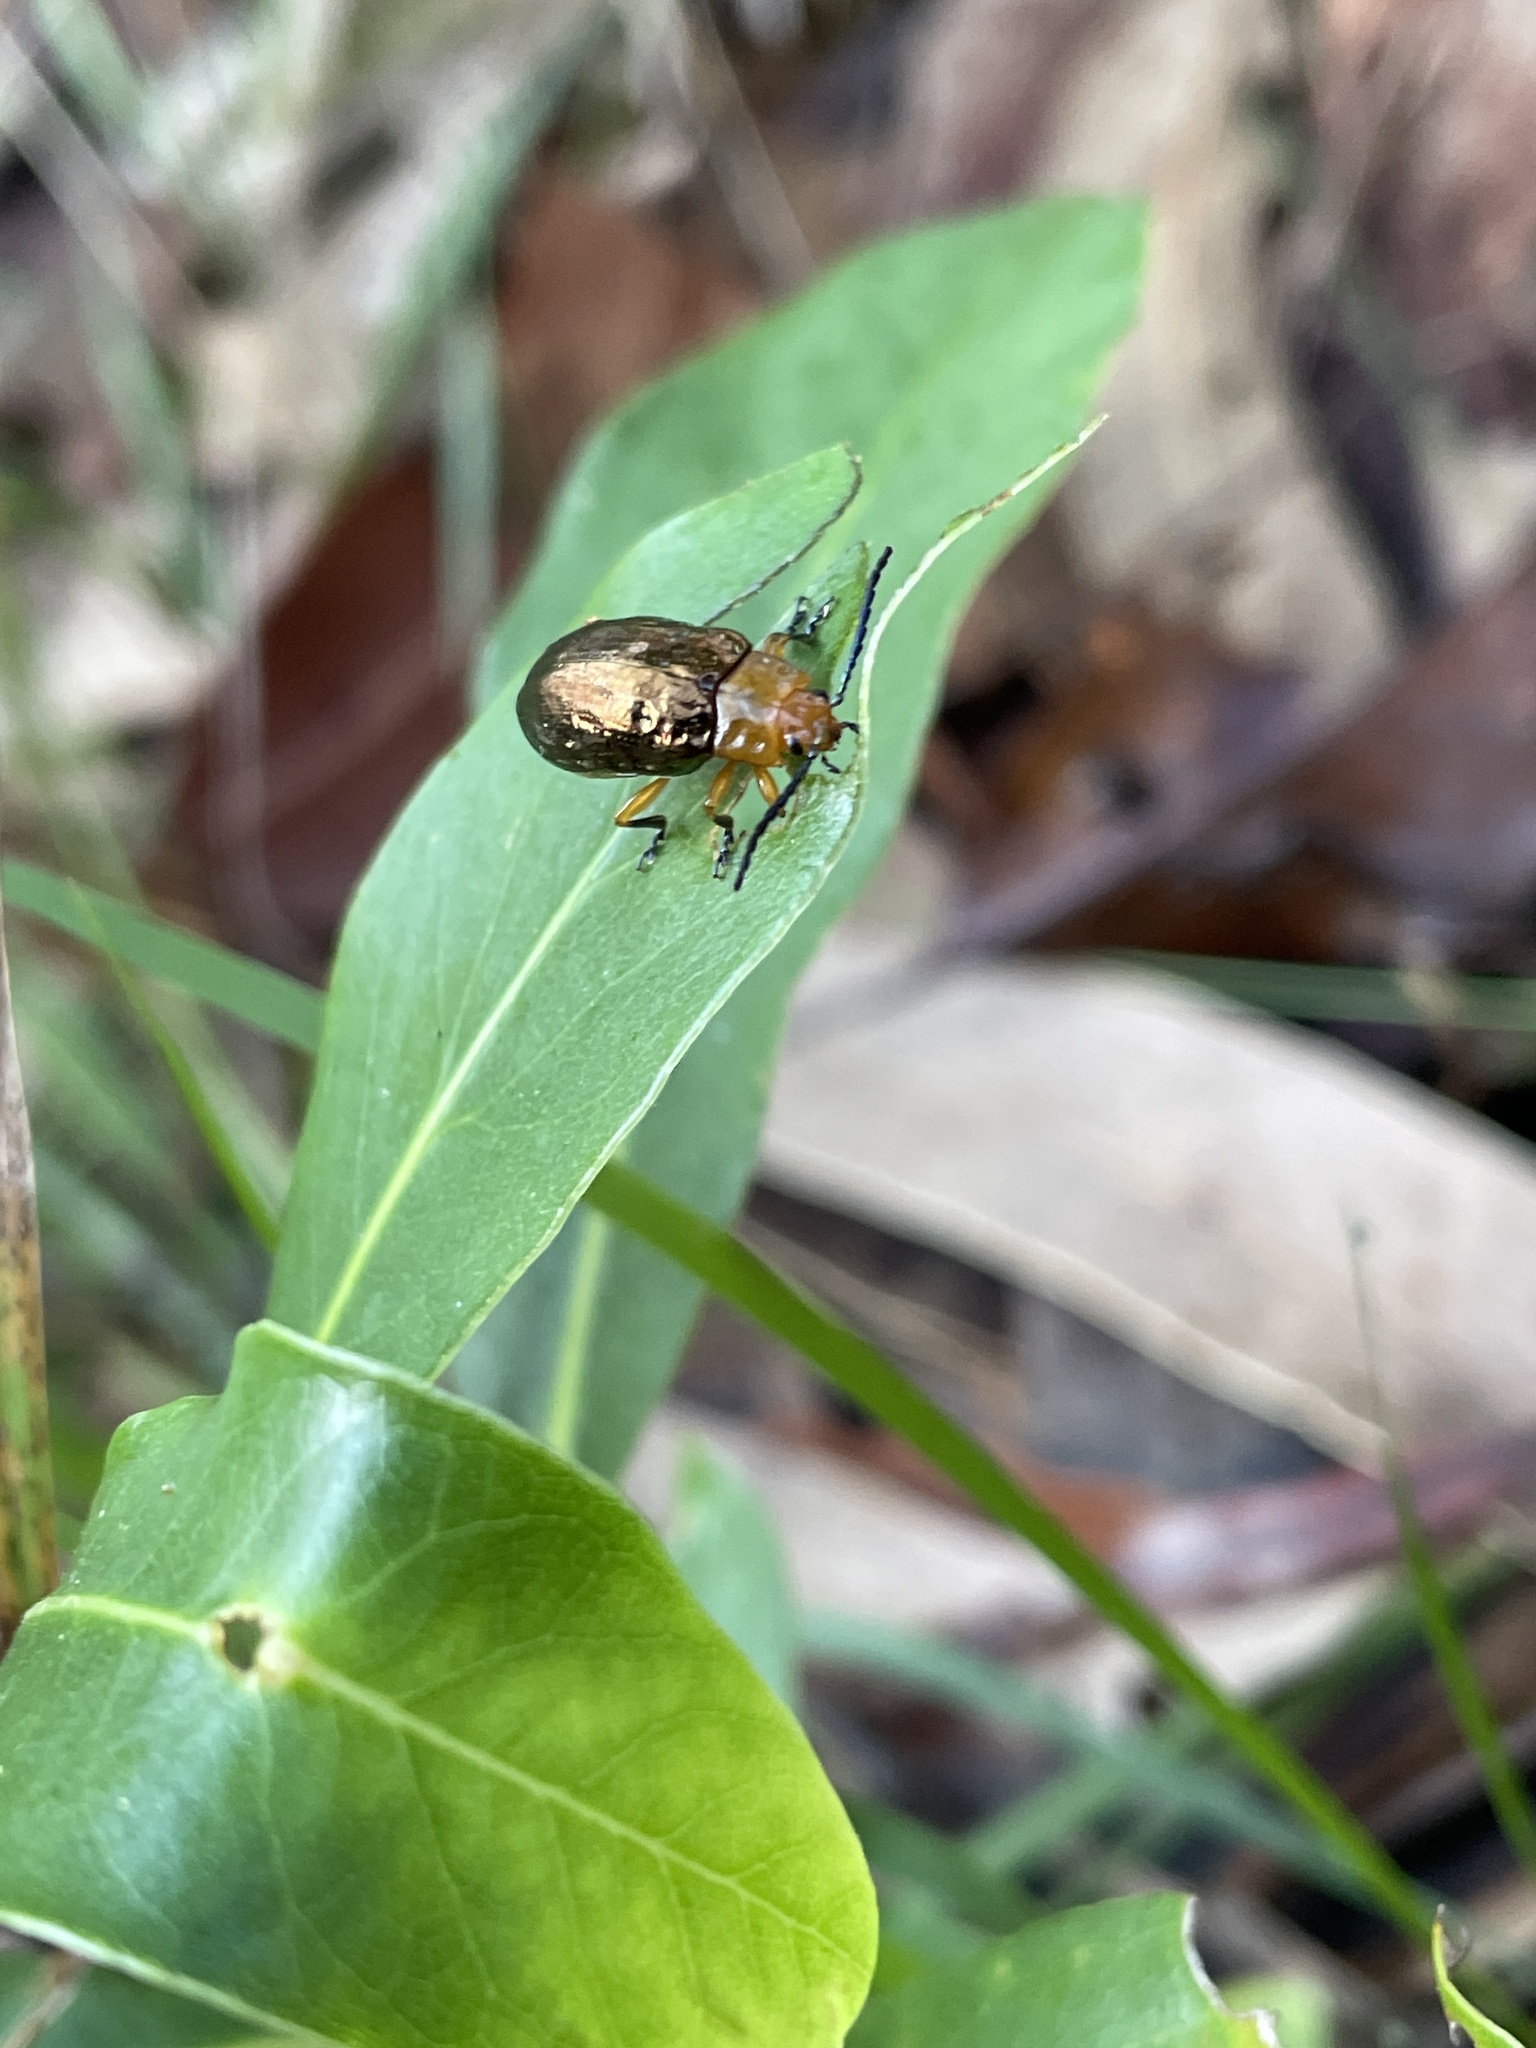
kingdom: Animalia
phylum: Arthropoda
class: Insecta
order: Coleoptera
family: Chrysomelidae
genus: Lamprolina
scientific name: Lamprolina
